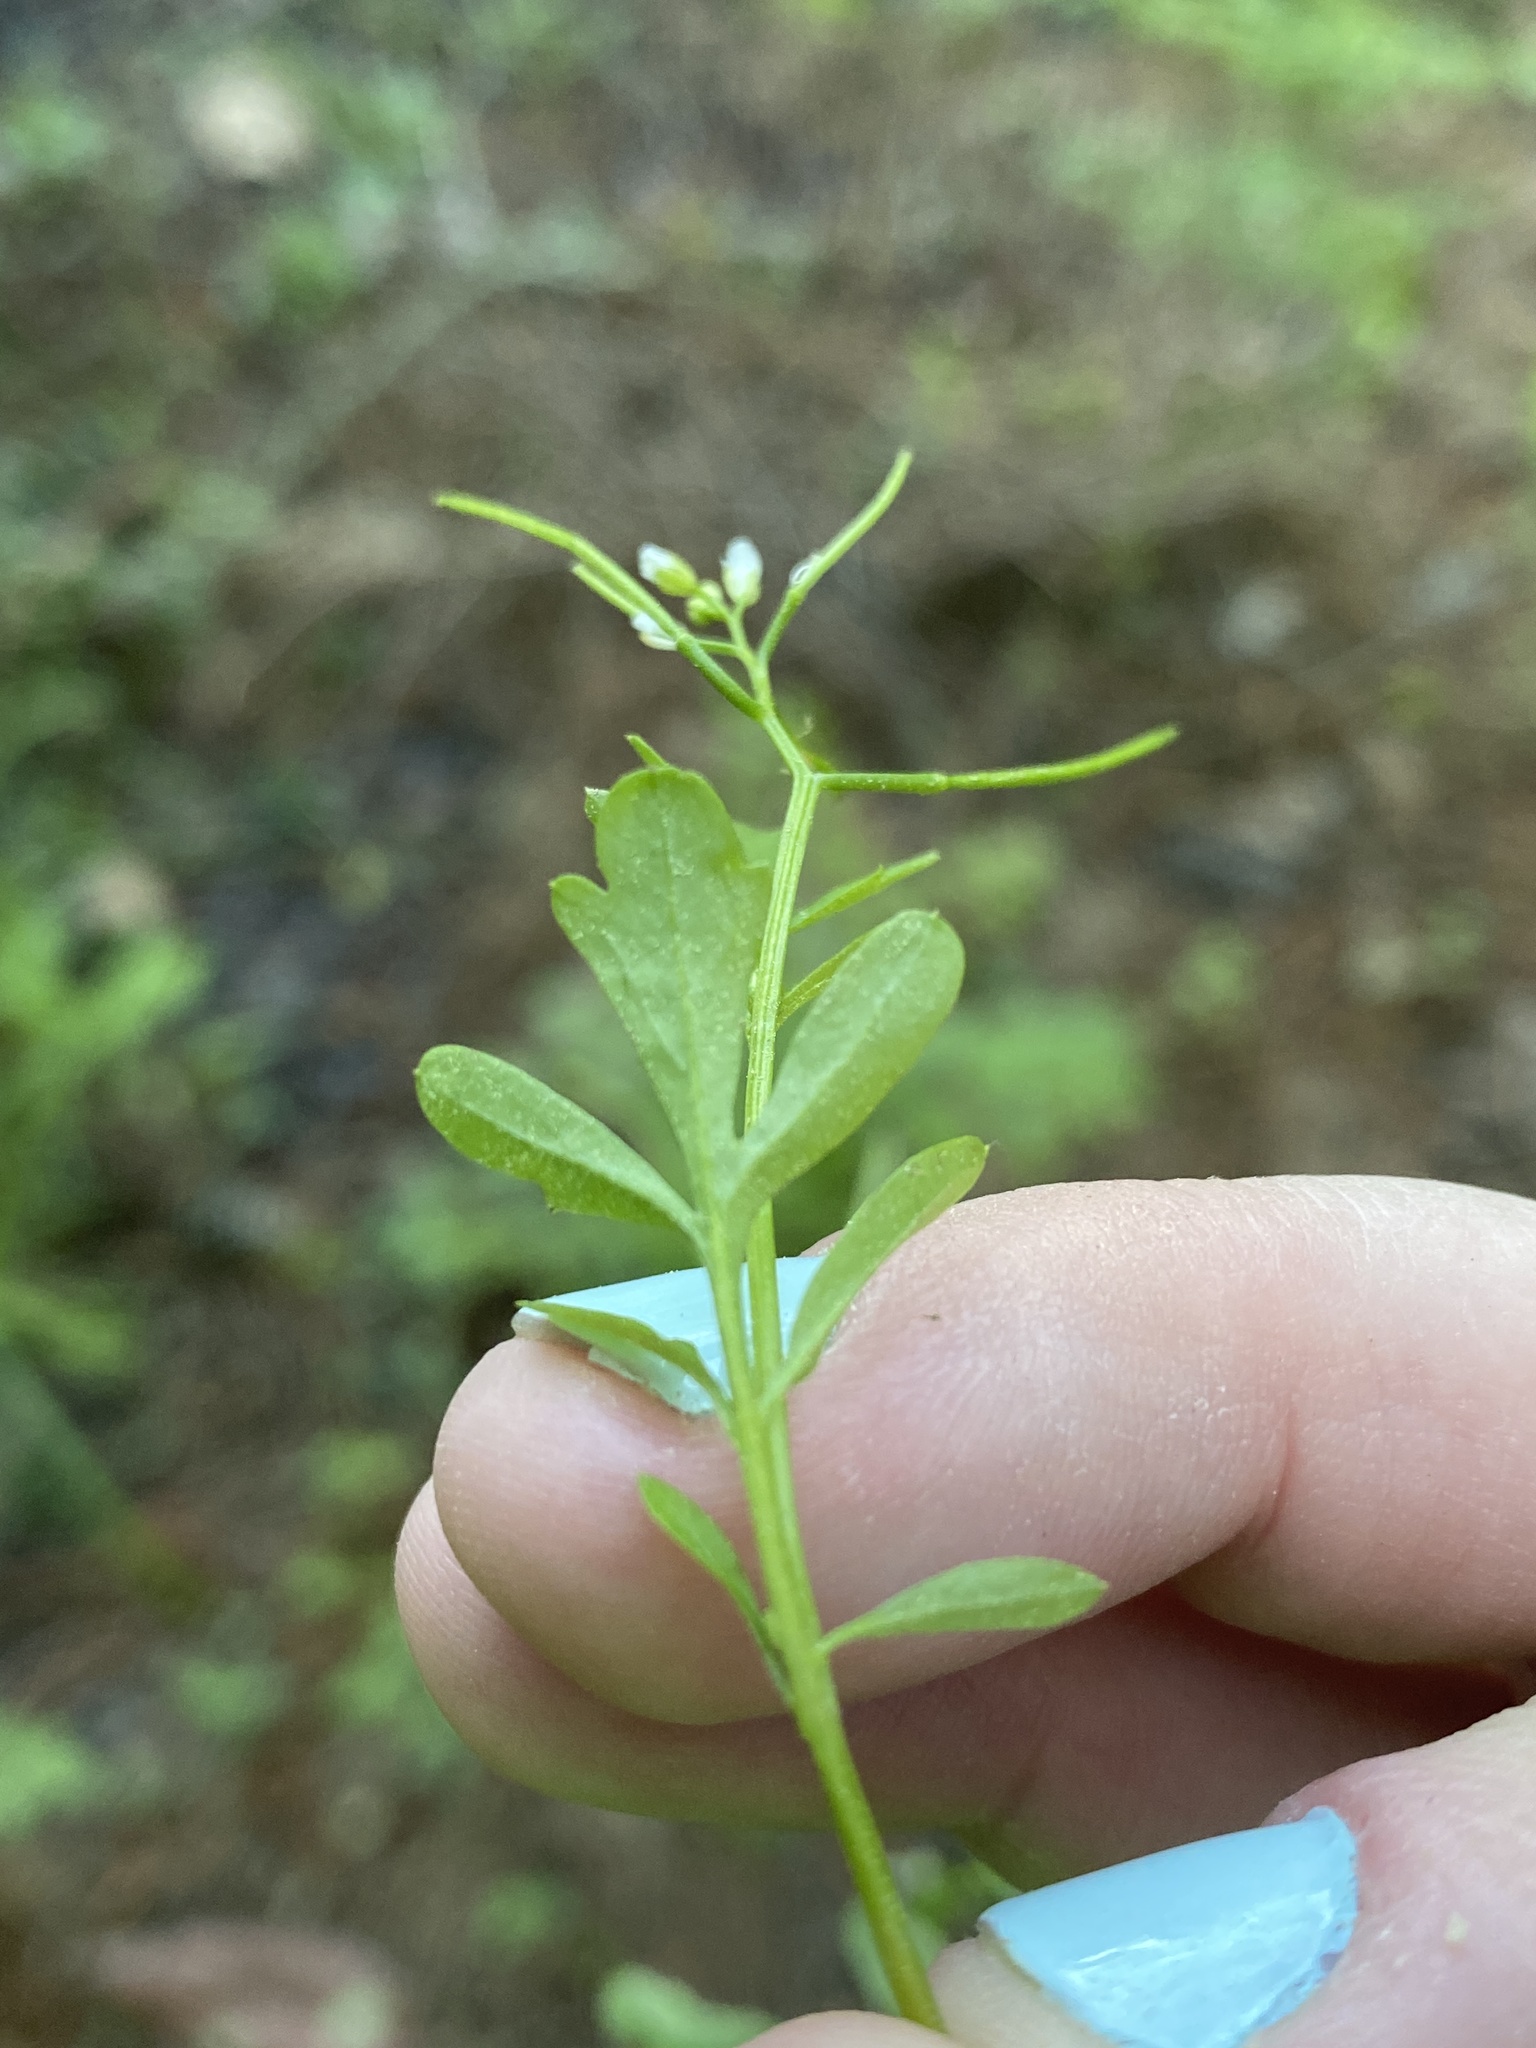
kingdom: Plantae
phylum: Tracheophyta
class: Magnoliopsida
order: Brassicales
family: Brassicaceae
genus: Cardamine
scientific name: Cardamine occulta
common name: Asian wavy bittercress
